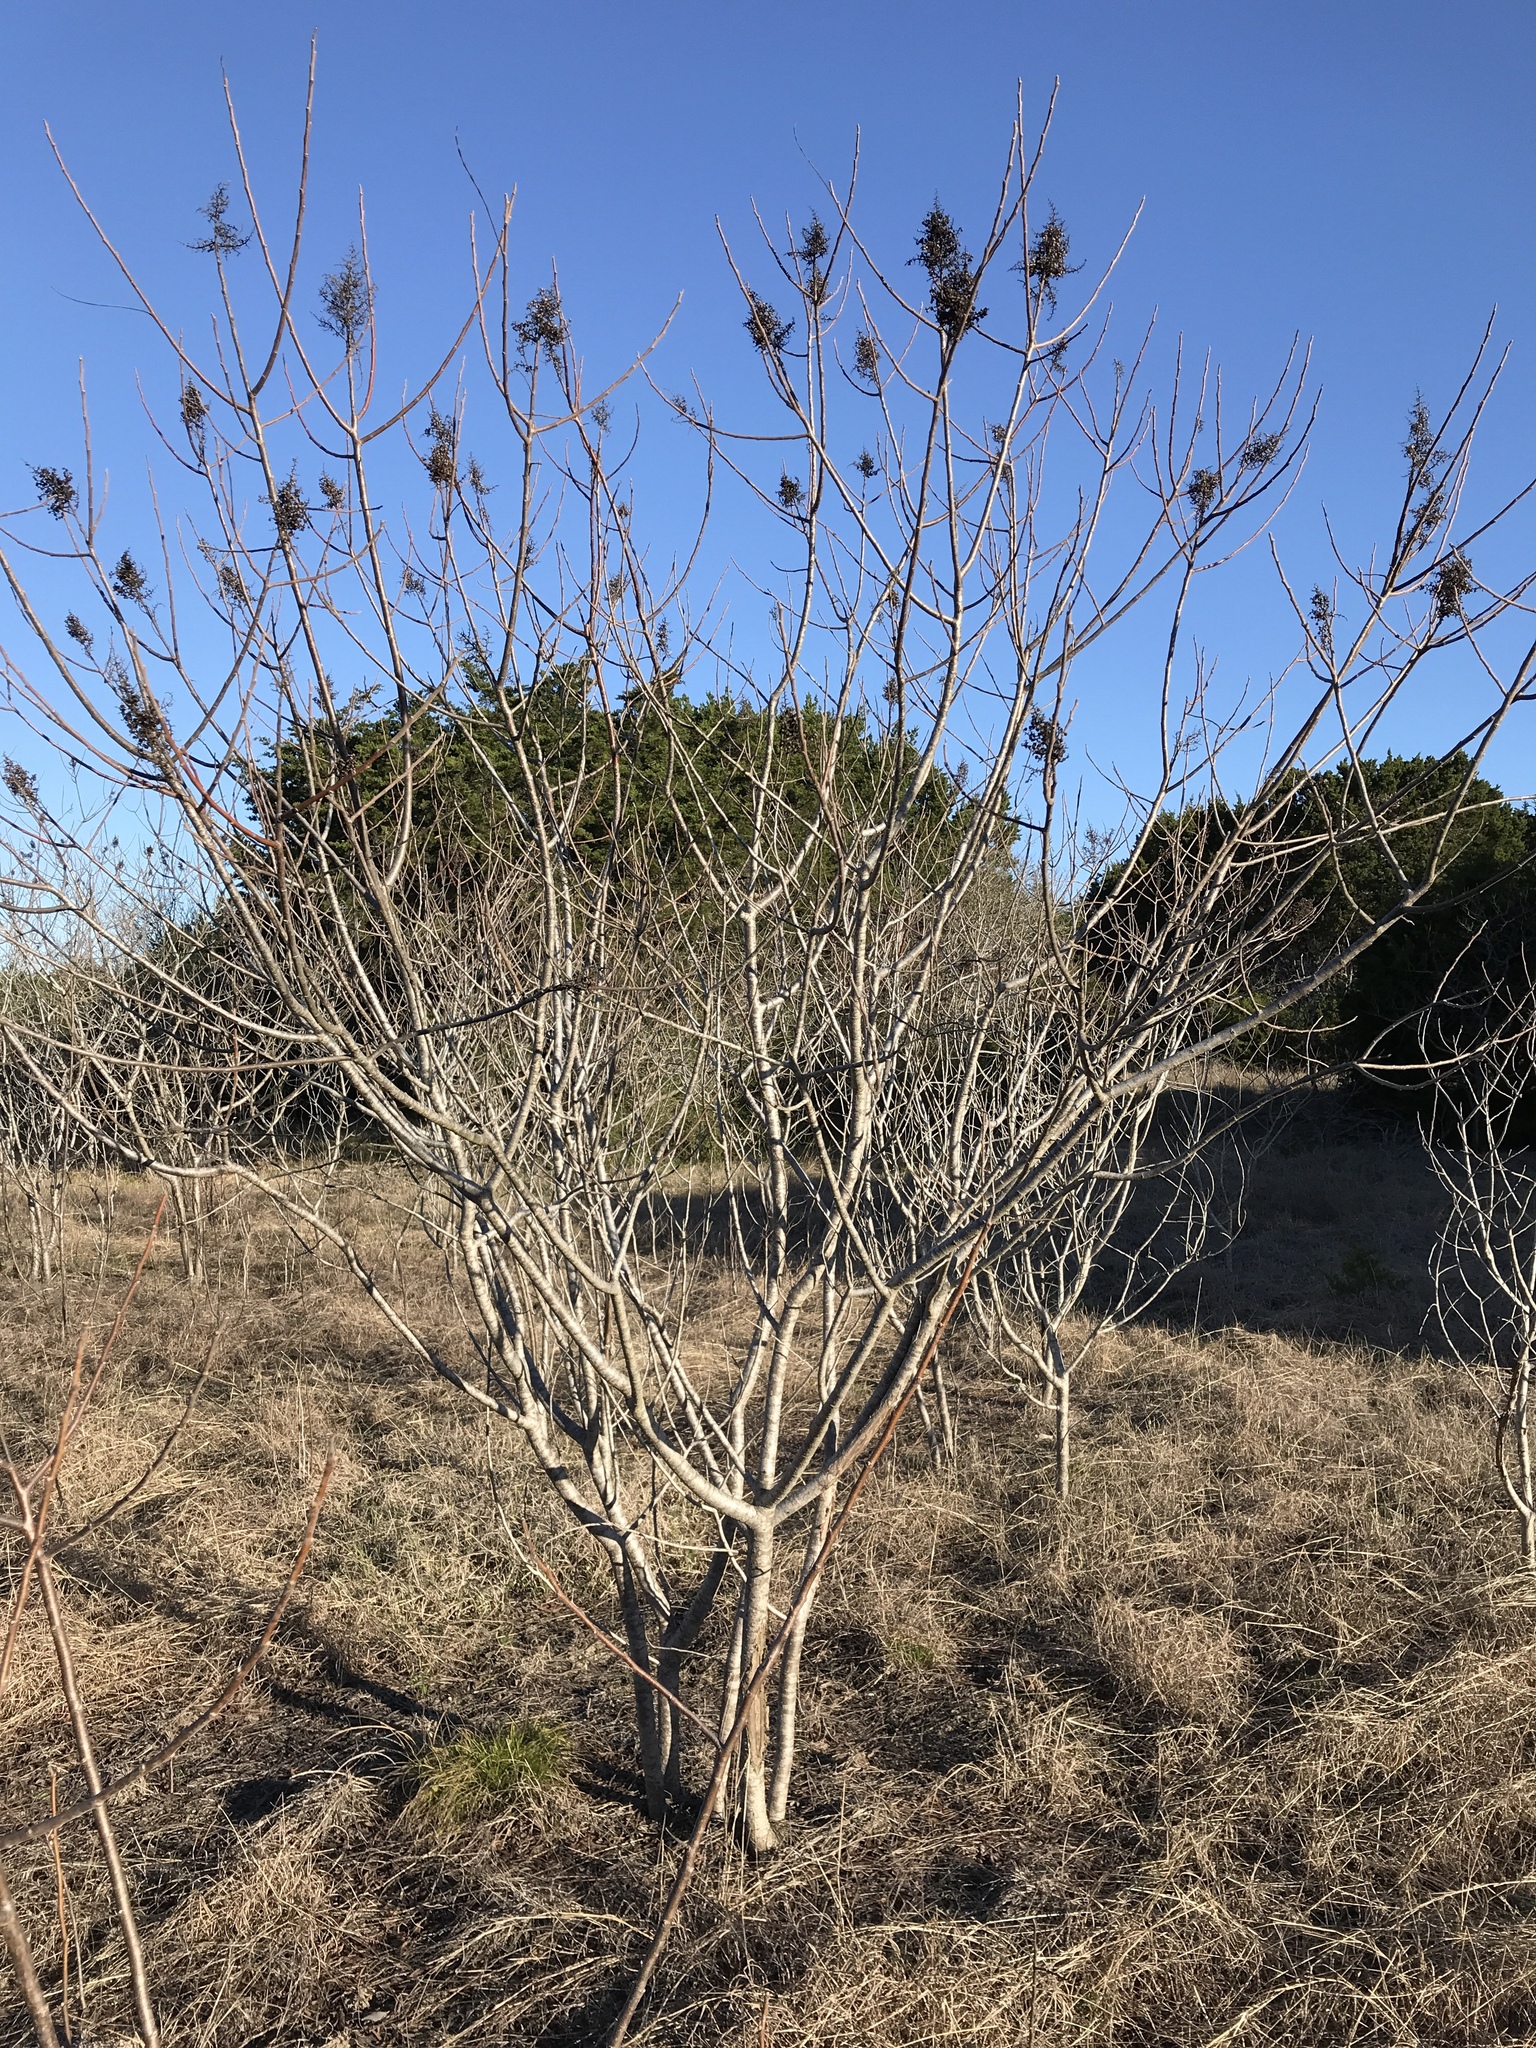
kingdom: Plantae
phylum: Tracheophyta
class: Magnoliopsida
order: Sapindales
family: Anacardiaceae
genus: Rhus
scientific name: Rhus lanceolata
